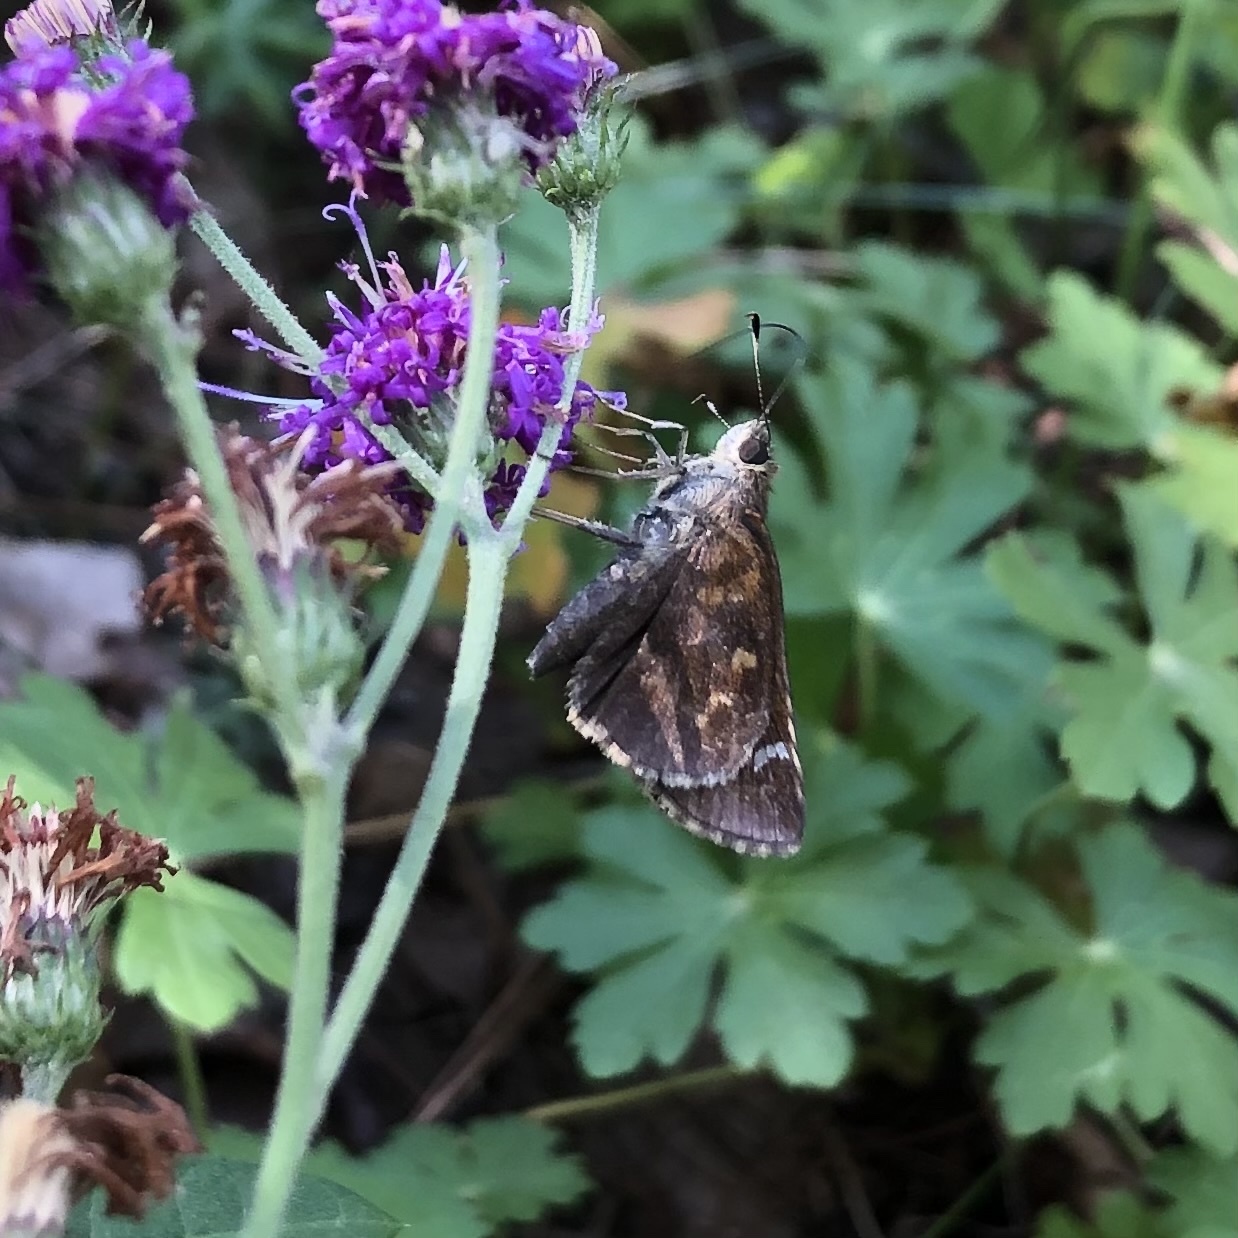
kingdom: Animalia
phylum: Arthropoda
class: Insecta
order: Lepidoptera
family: Hesperiidae
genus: Lerema
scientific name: Lerema accius
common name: Clouded skipper
